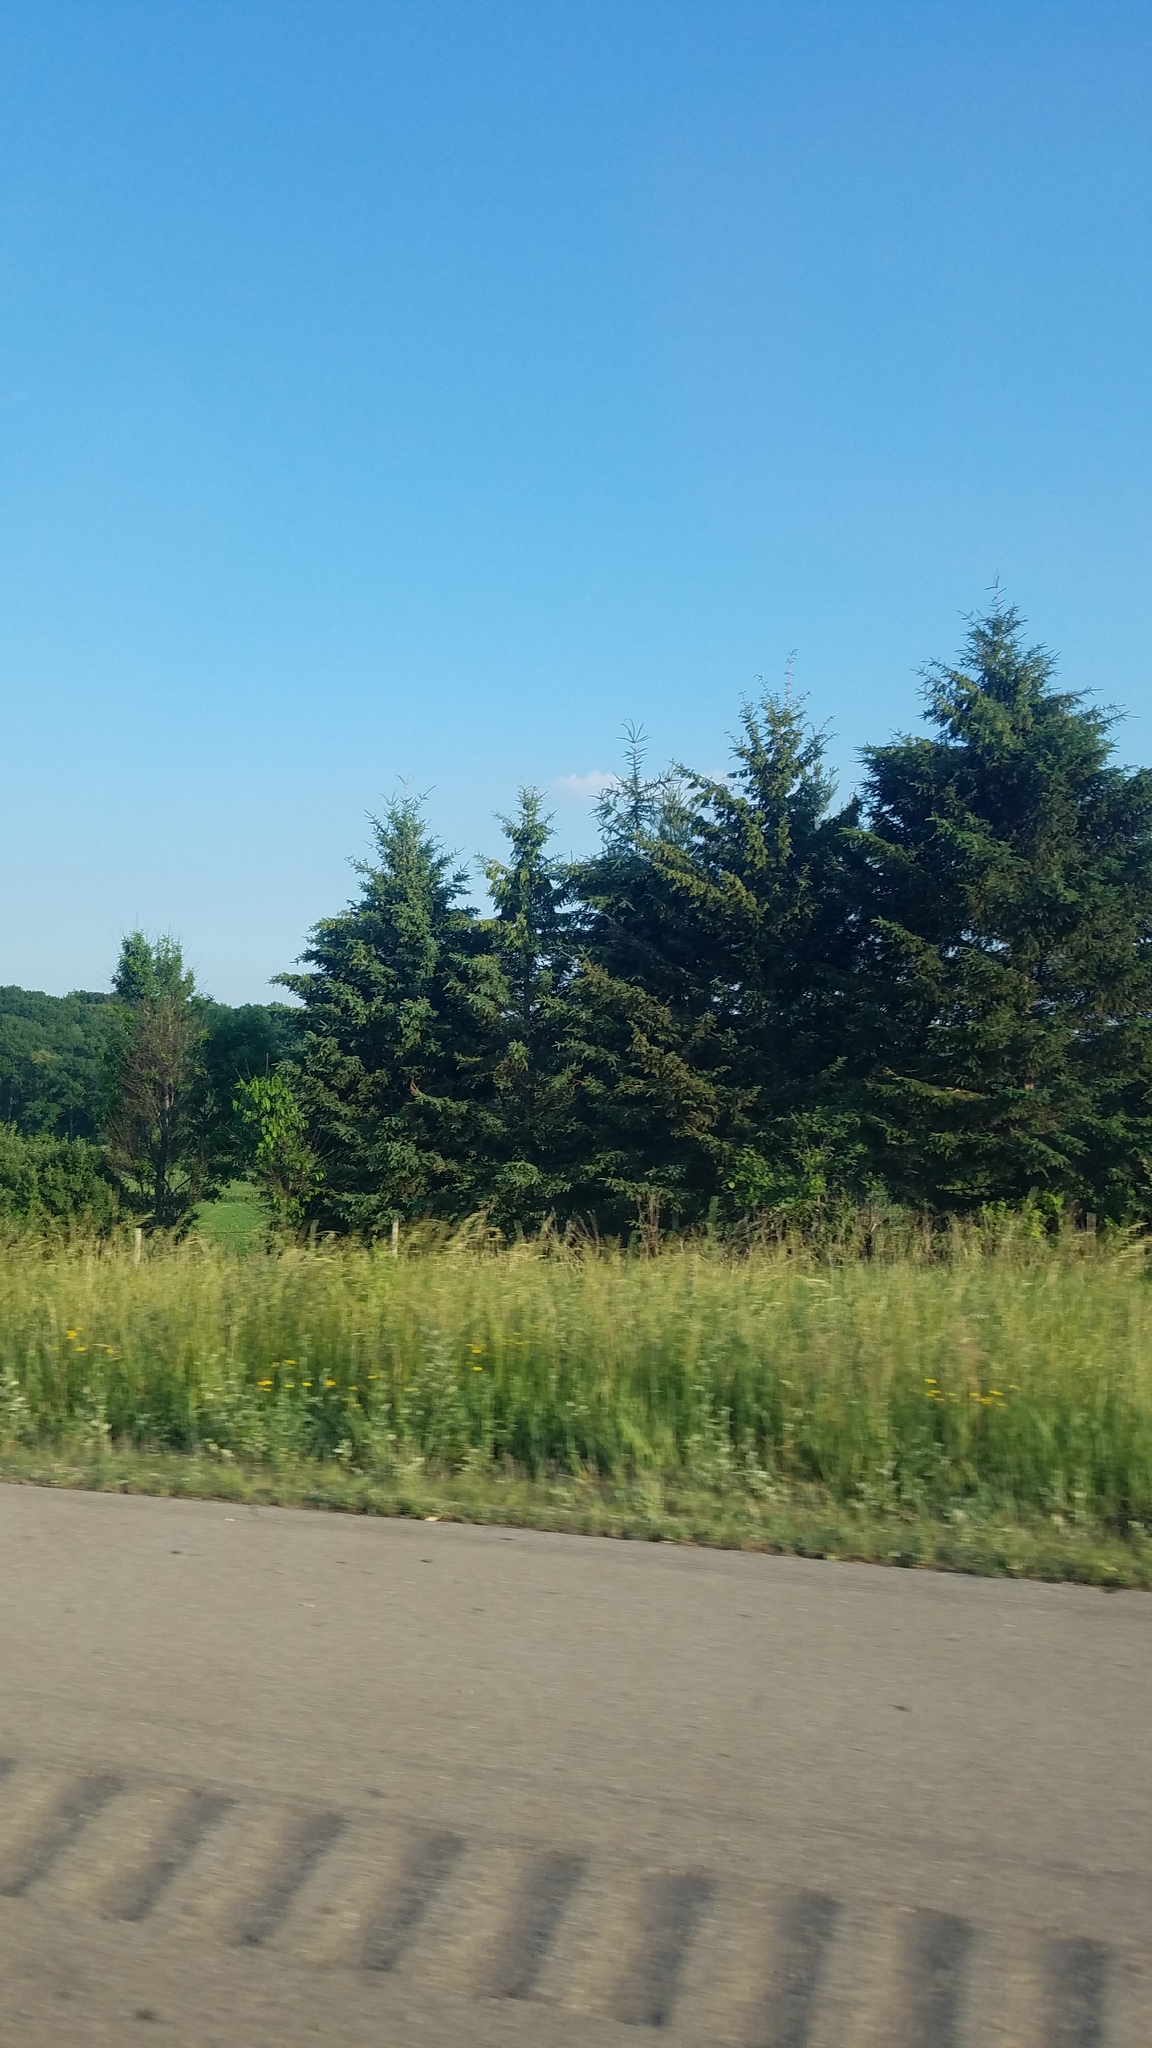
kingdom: Plantae
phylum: Tracheophyta
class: Pinopsida
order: Pinales
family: Pinaceae
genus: Picea
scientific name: Picea glauca
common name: White spruce
